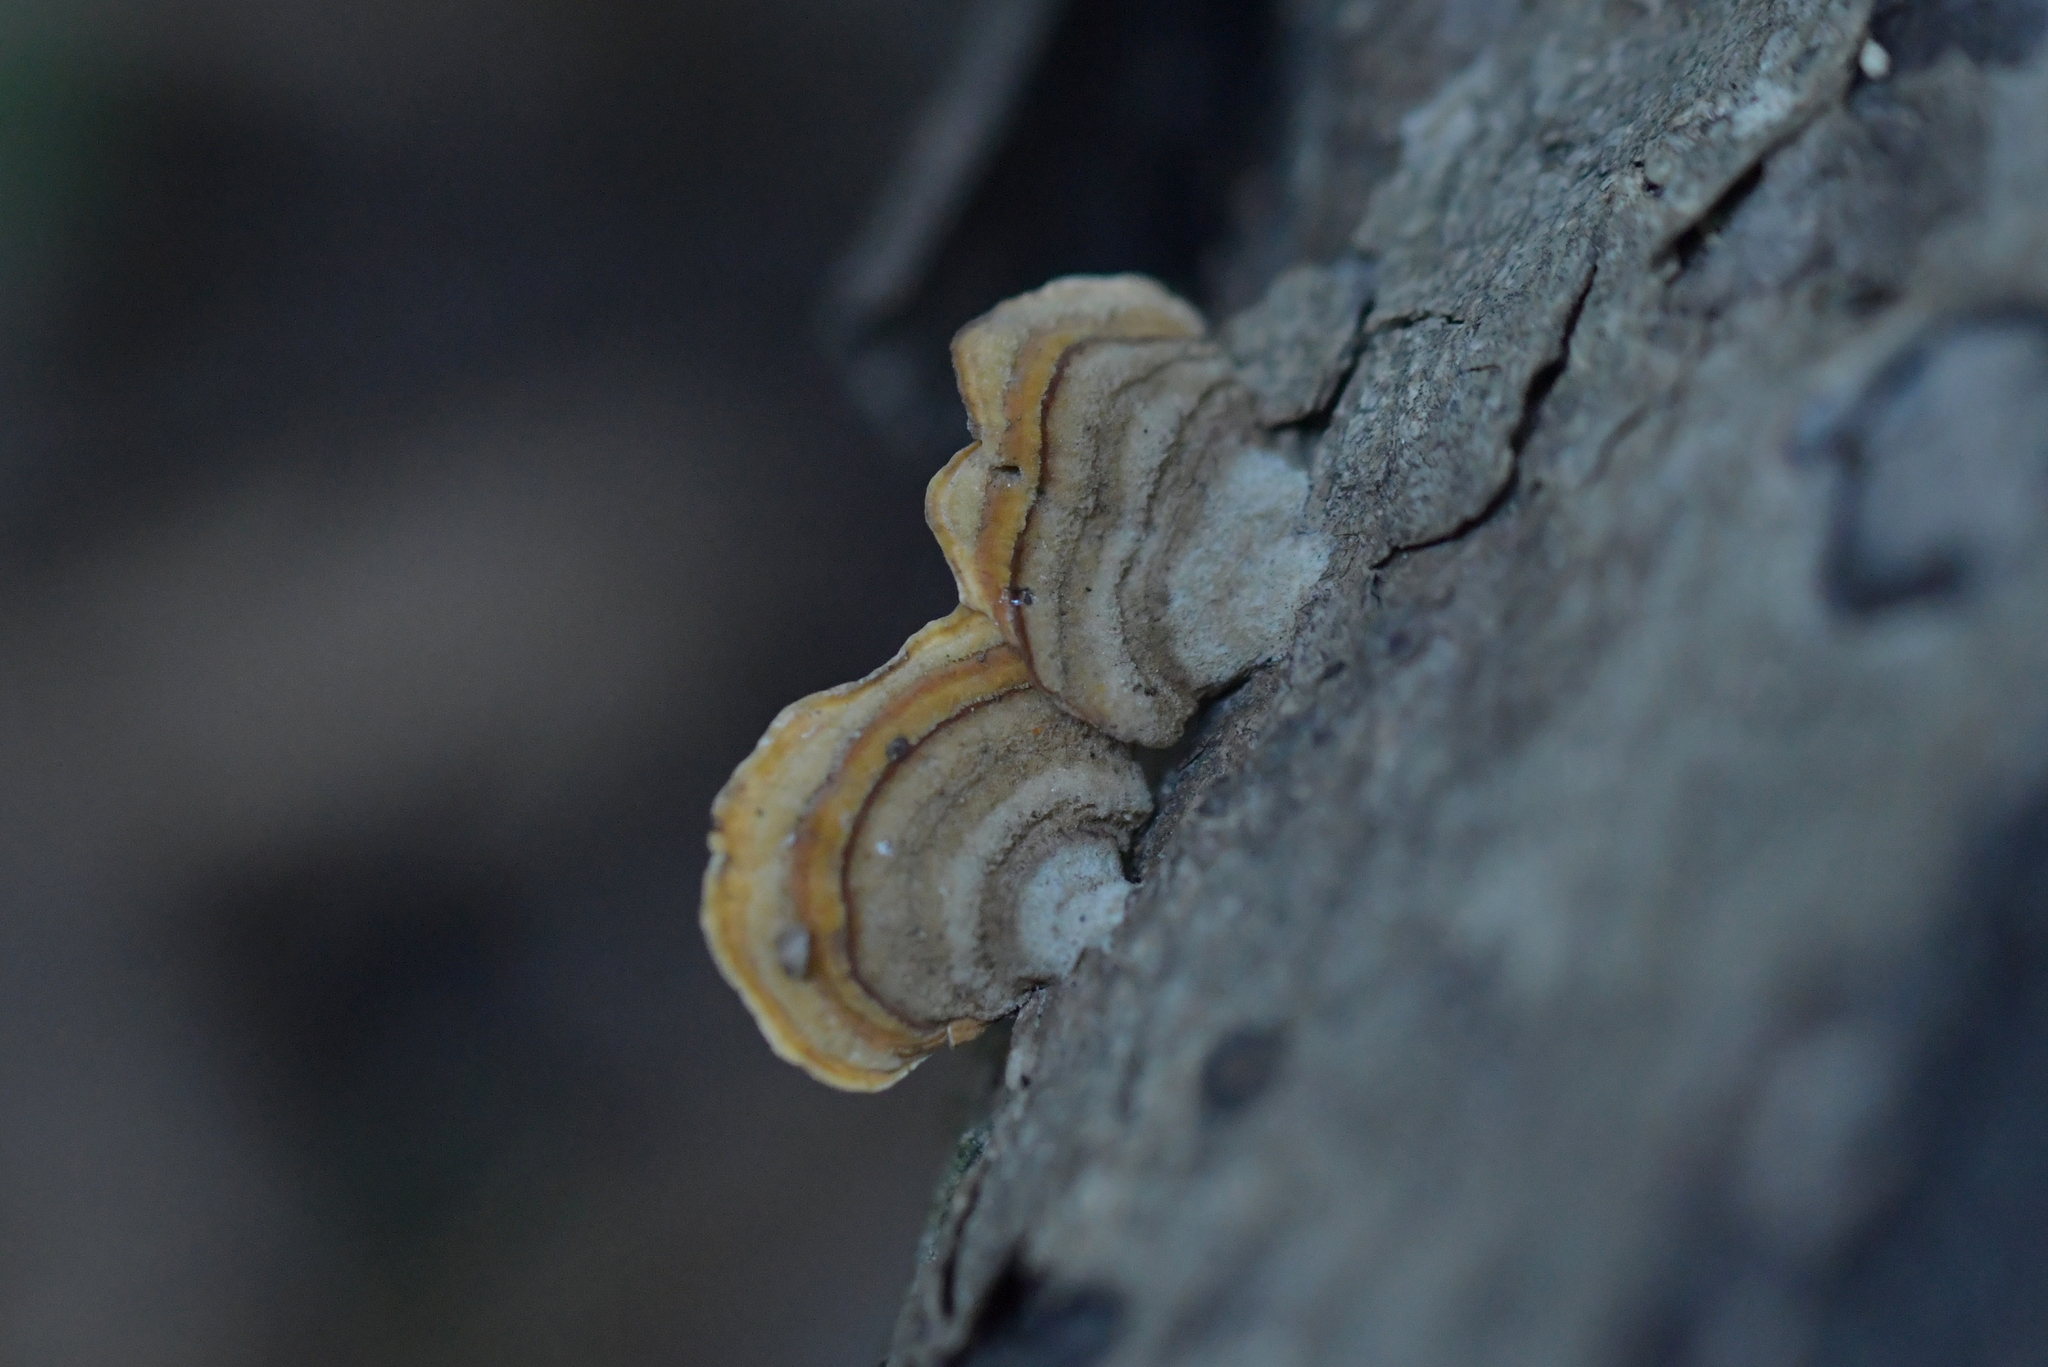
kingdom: Fungi
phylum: Basidiomycota
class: Agaricomycetes
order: Russulales
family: Stereaceae
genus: Stereum
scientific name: Stereum versicolor
